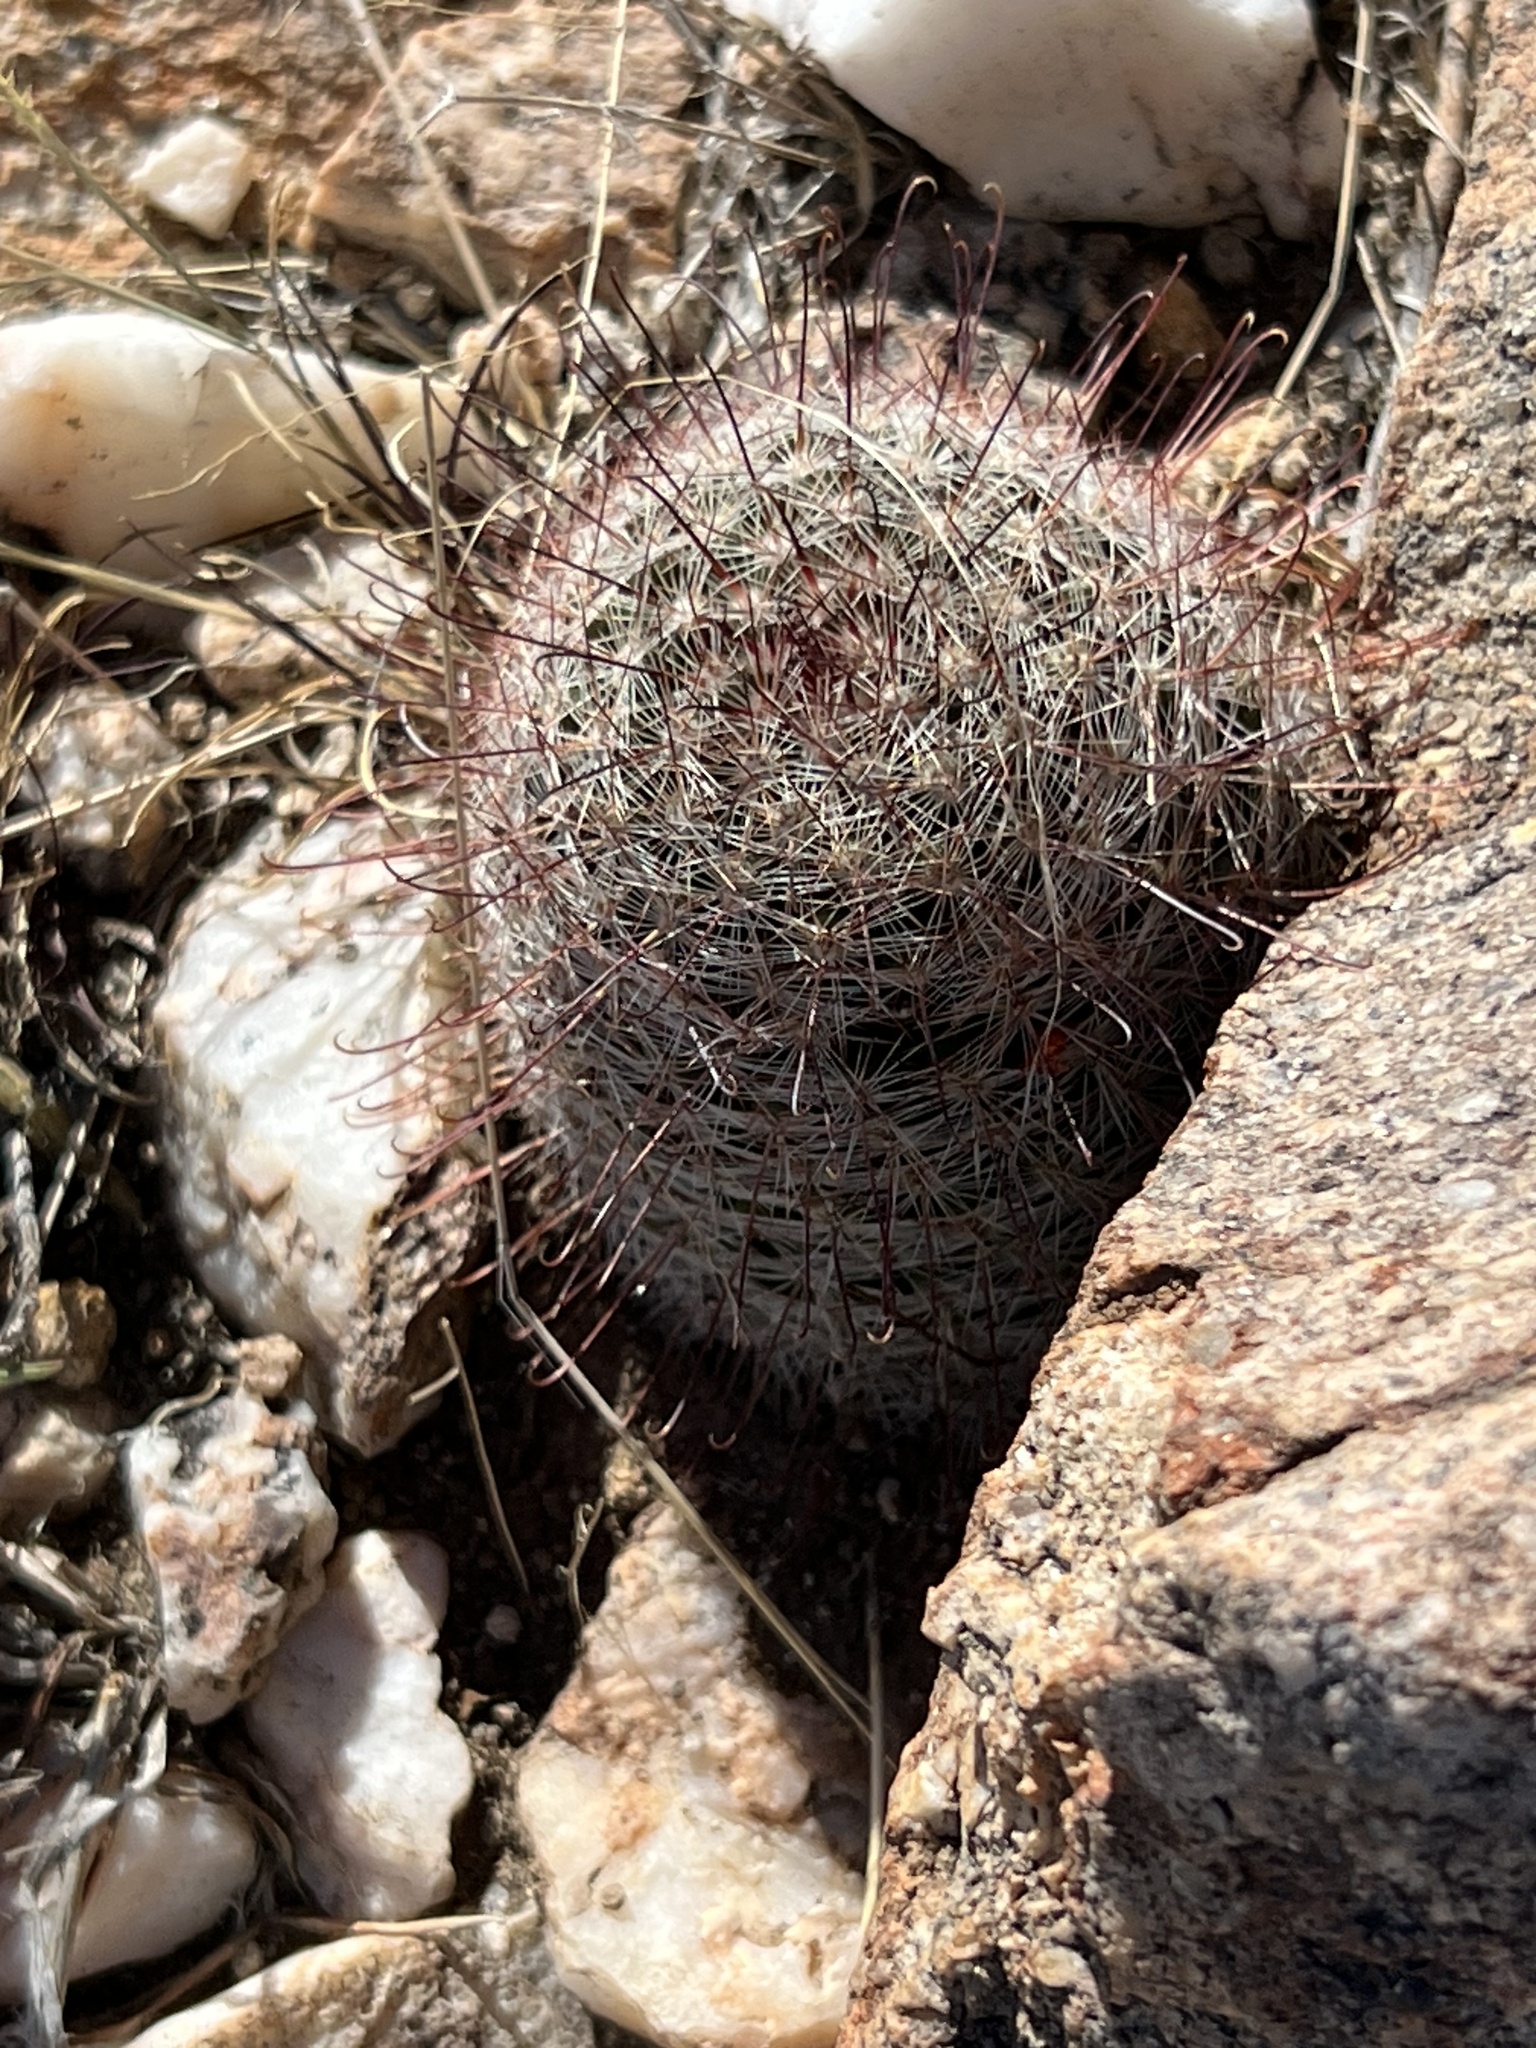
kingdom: Plantae
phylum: Tracheophyta
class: Magnoliopsida
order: Caryophyllales
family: Cactaceae
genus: Cochemiea
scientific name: Cochemiea grahamii
